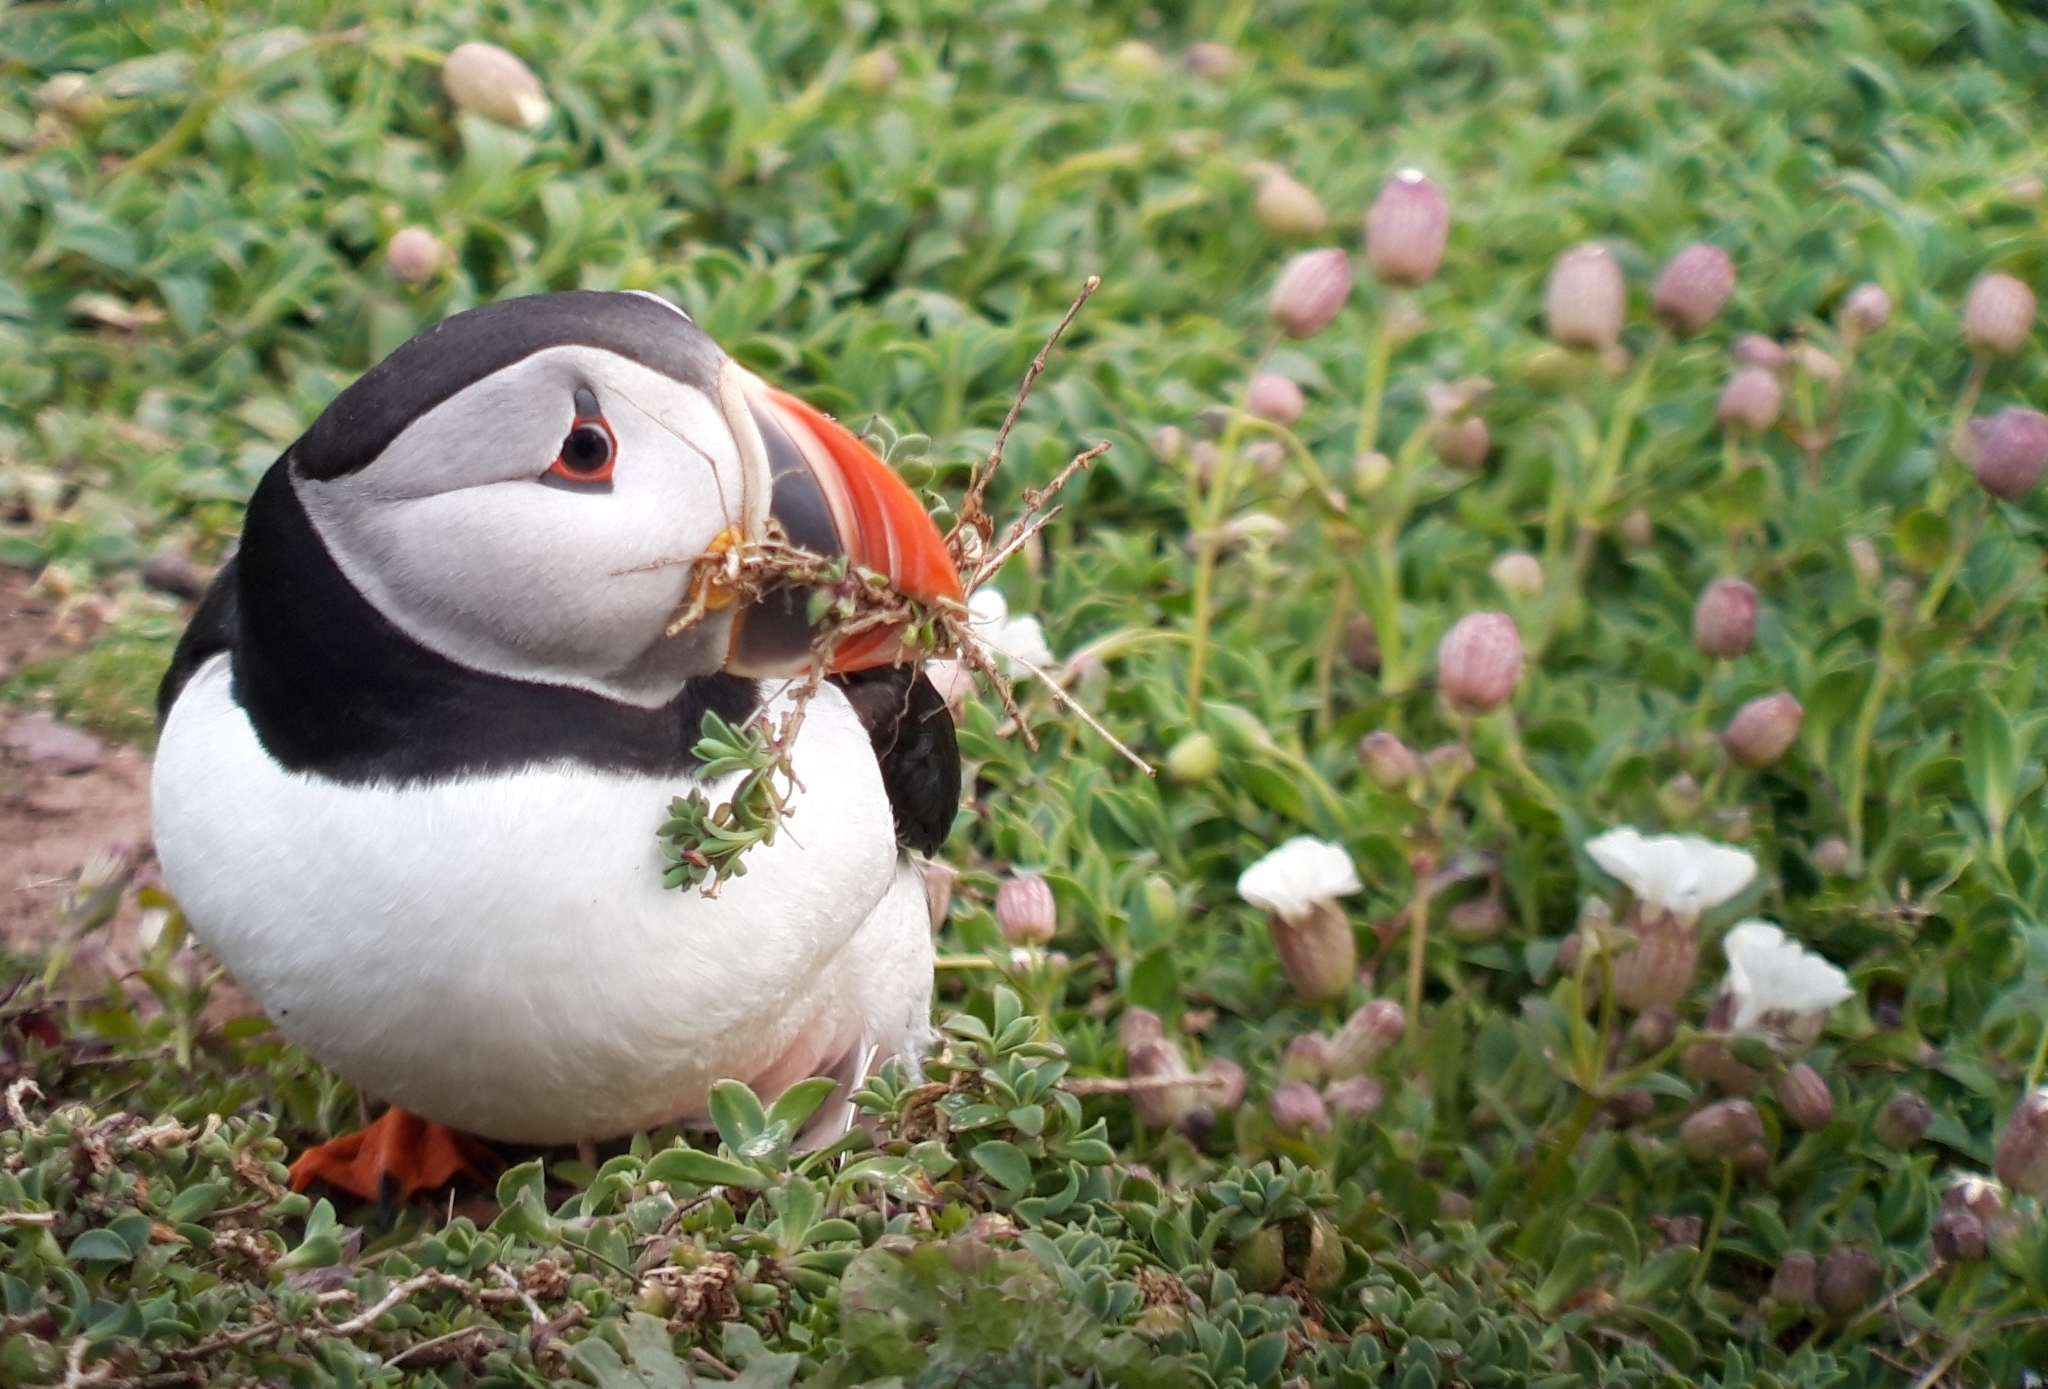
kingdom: Animalia
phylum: Chordata
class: Aves
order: Charadriiformes
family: Alcidae
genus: Fratercula
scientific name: Fratercula arctica
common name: Atlantic puffin
